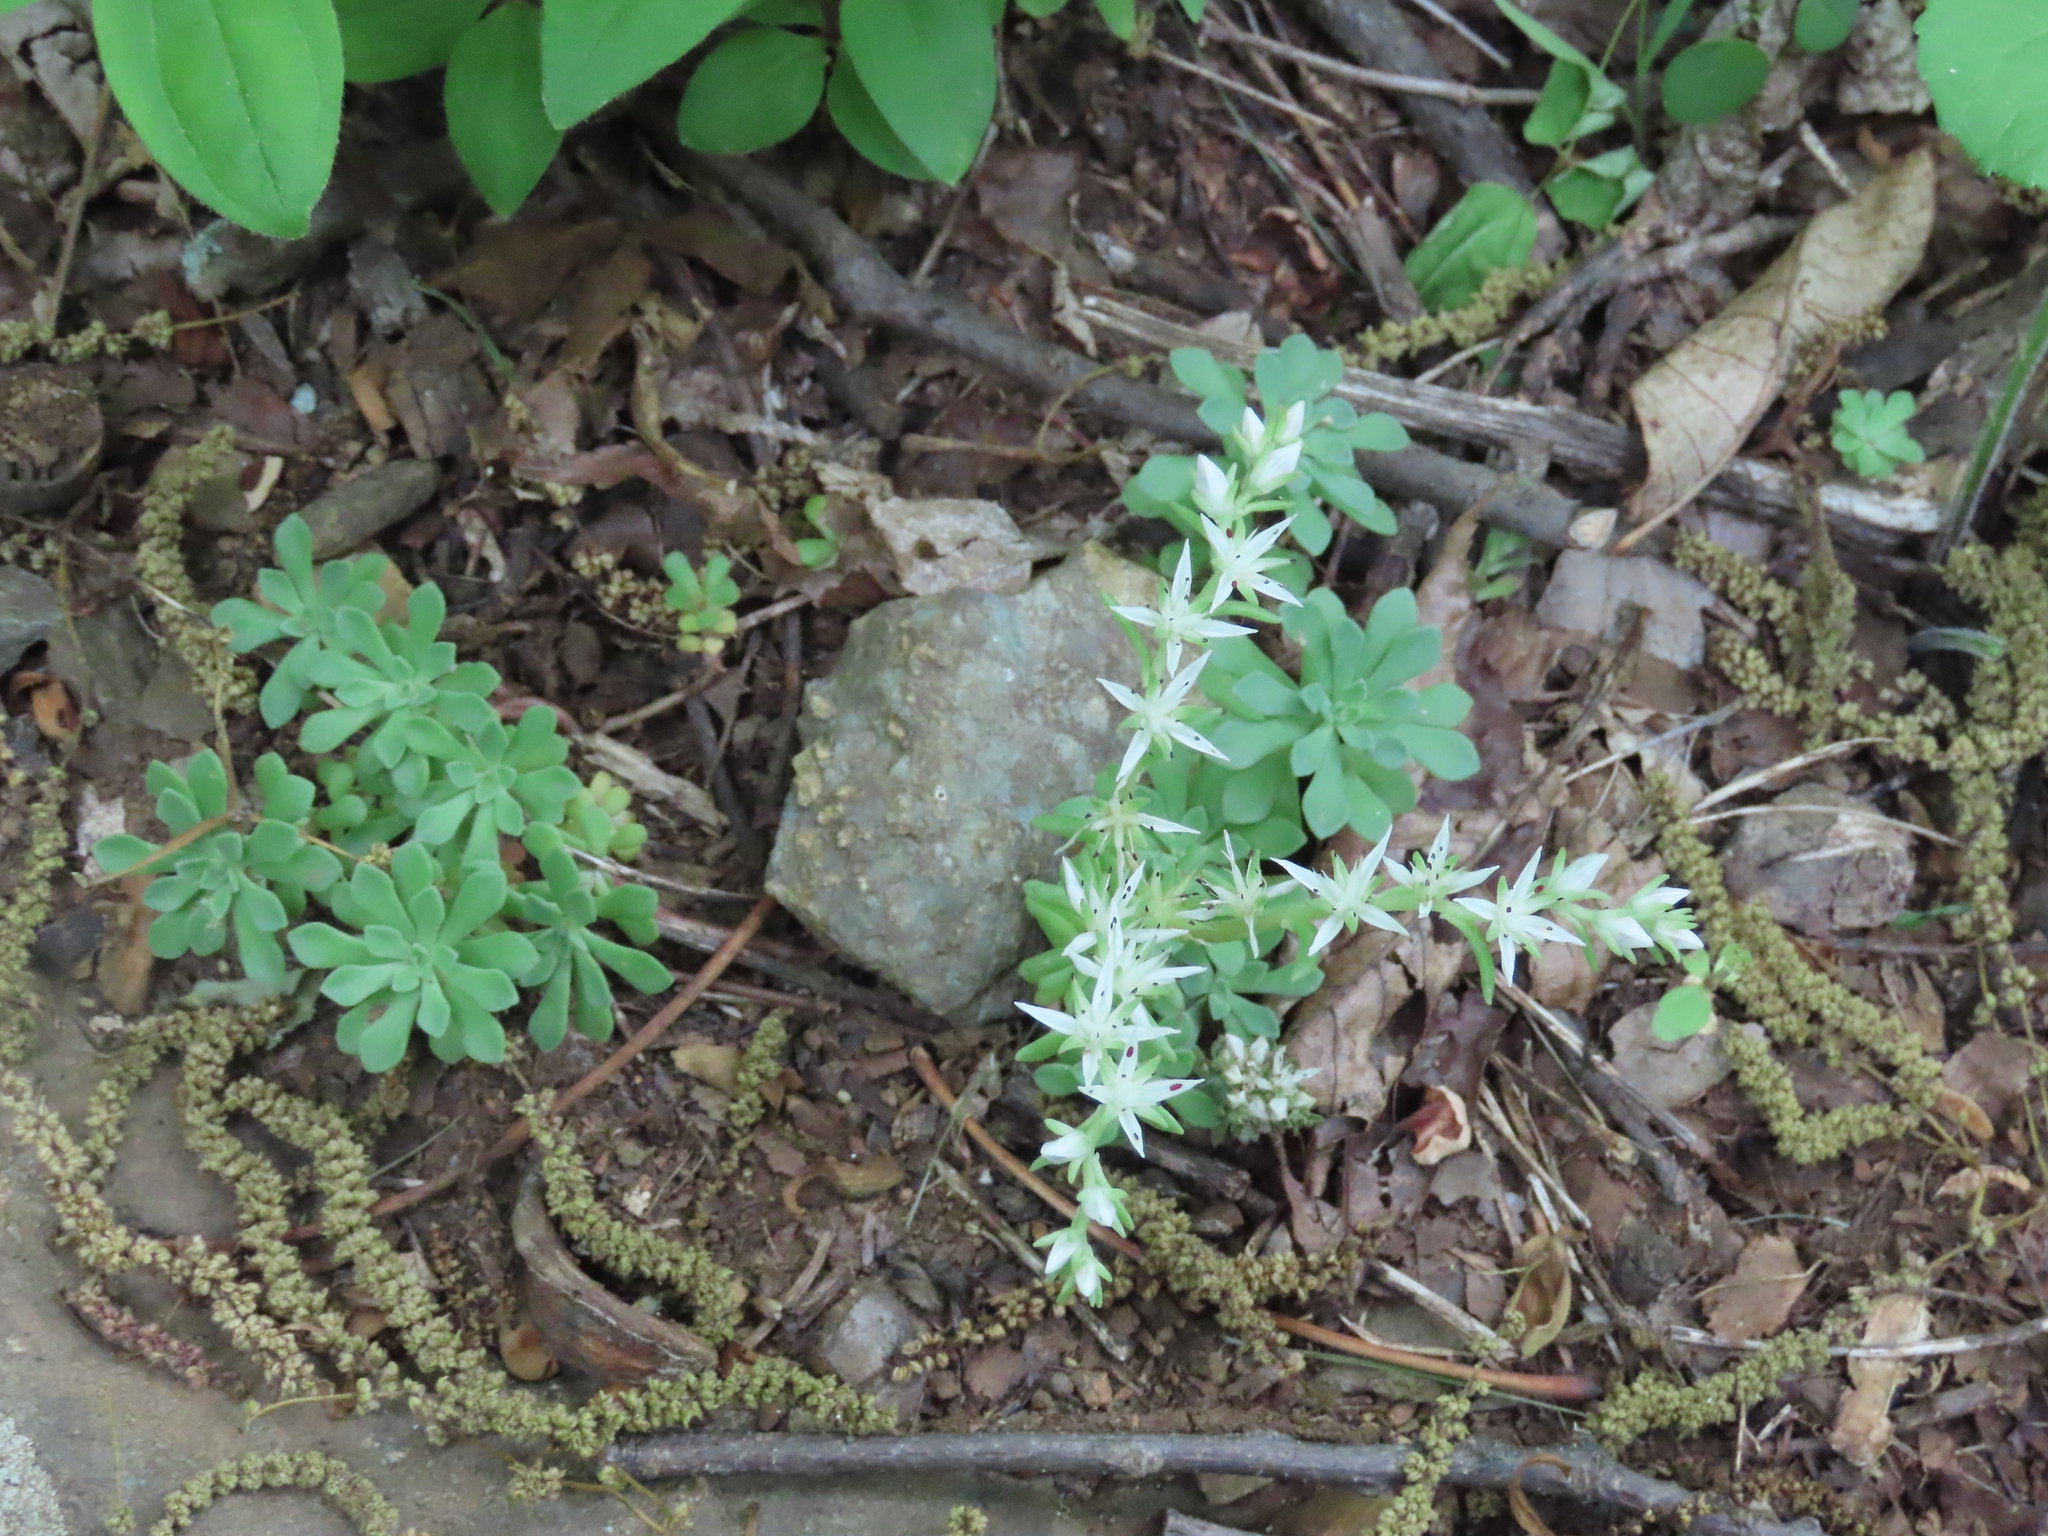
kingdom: Plantae
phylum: Tracheophyta
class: Magnoliopsida
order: Saxifragales
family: Crassulaceae
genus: Sedum
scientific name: Sedum glaucophyllum
